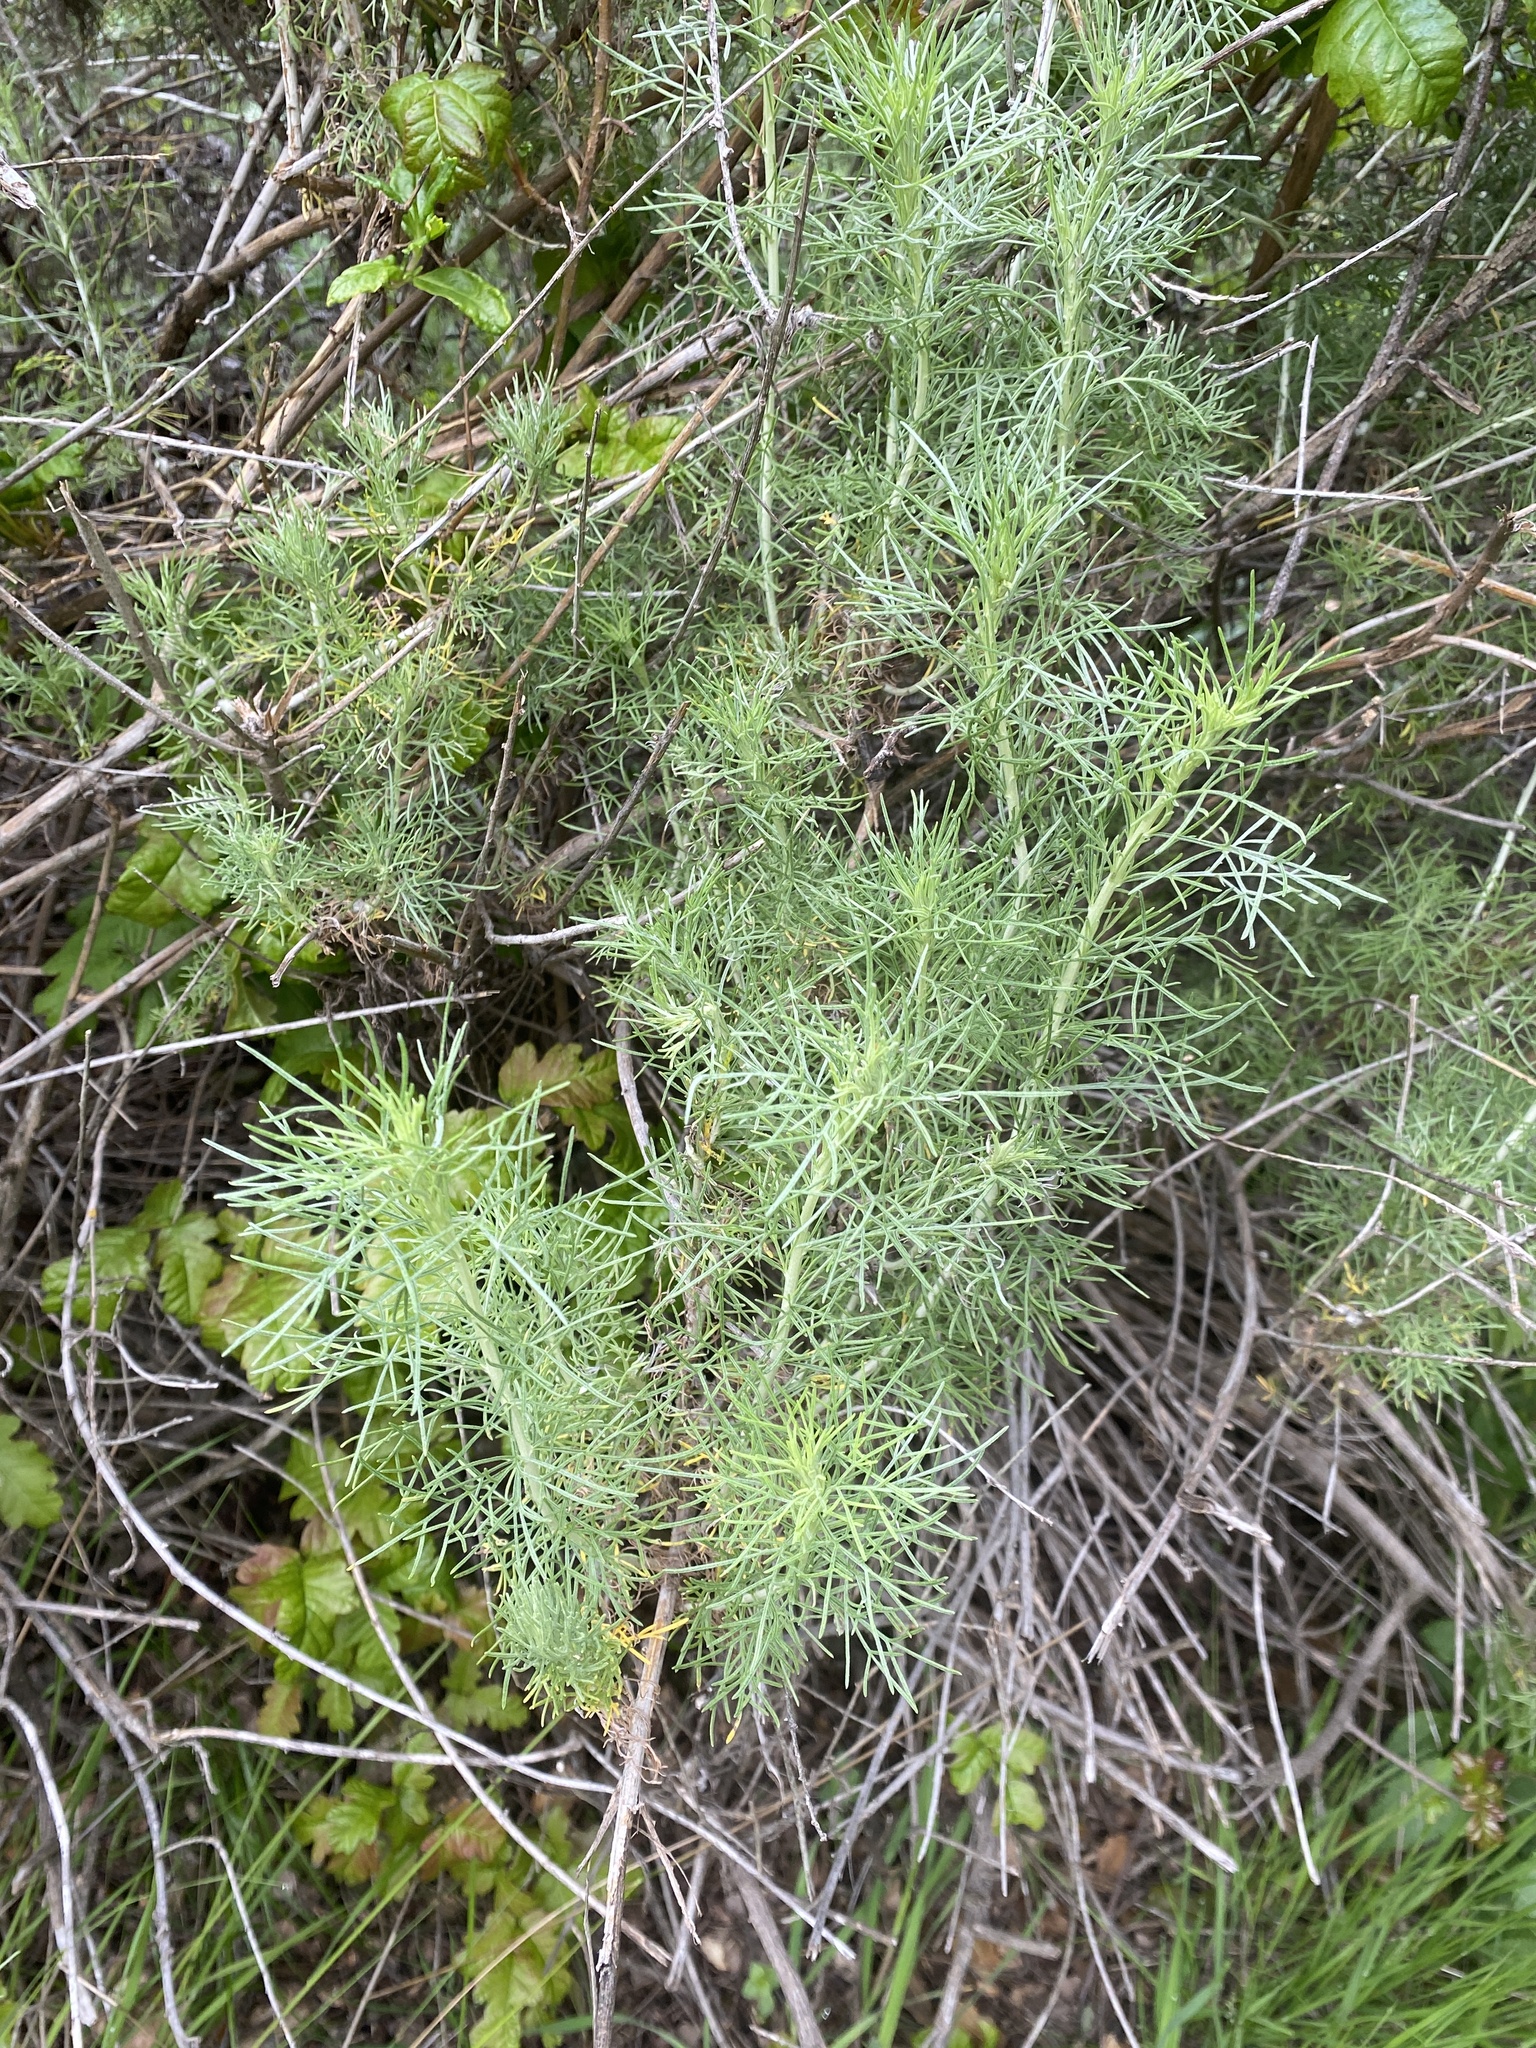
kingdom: Plantae
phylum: Tracheophyta
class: Magnoliopsida
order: Asterales
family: Asteraceae
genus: Artemisia
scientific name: Artemisia californica
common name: California sagebrush
